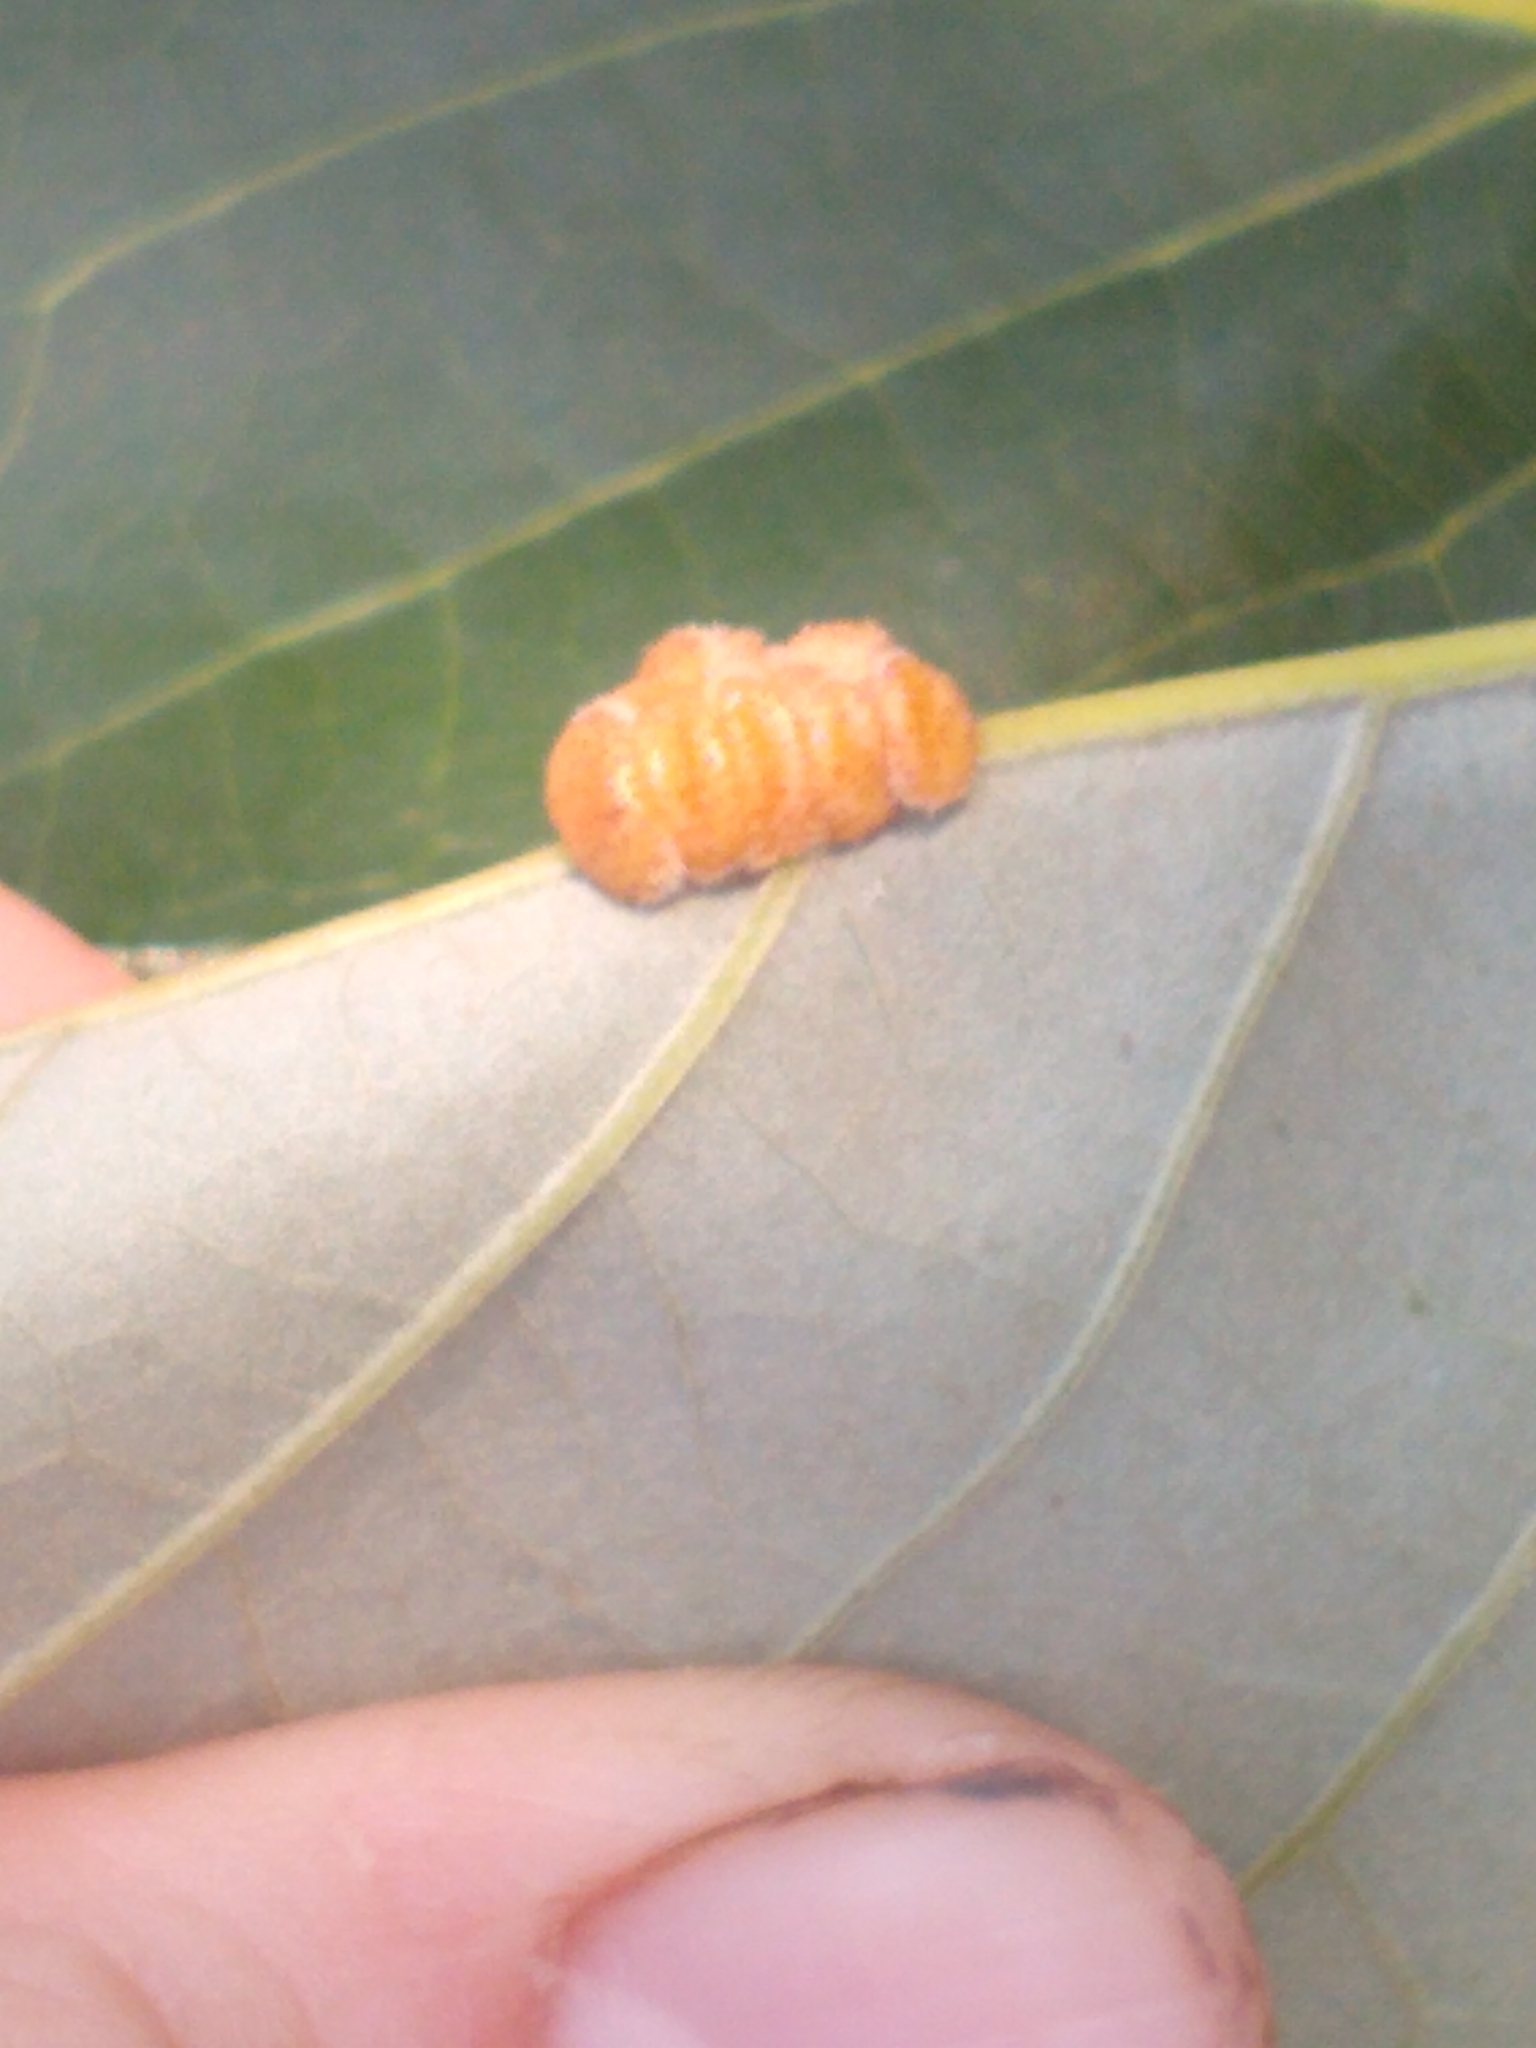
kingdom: Animalia
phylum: Arthropoda
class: Insecta
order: Hymenoptera
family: Cynipidae
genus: Andricus
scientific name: Andricus
